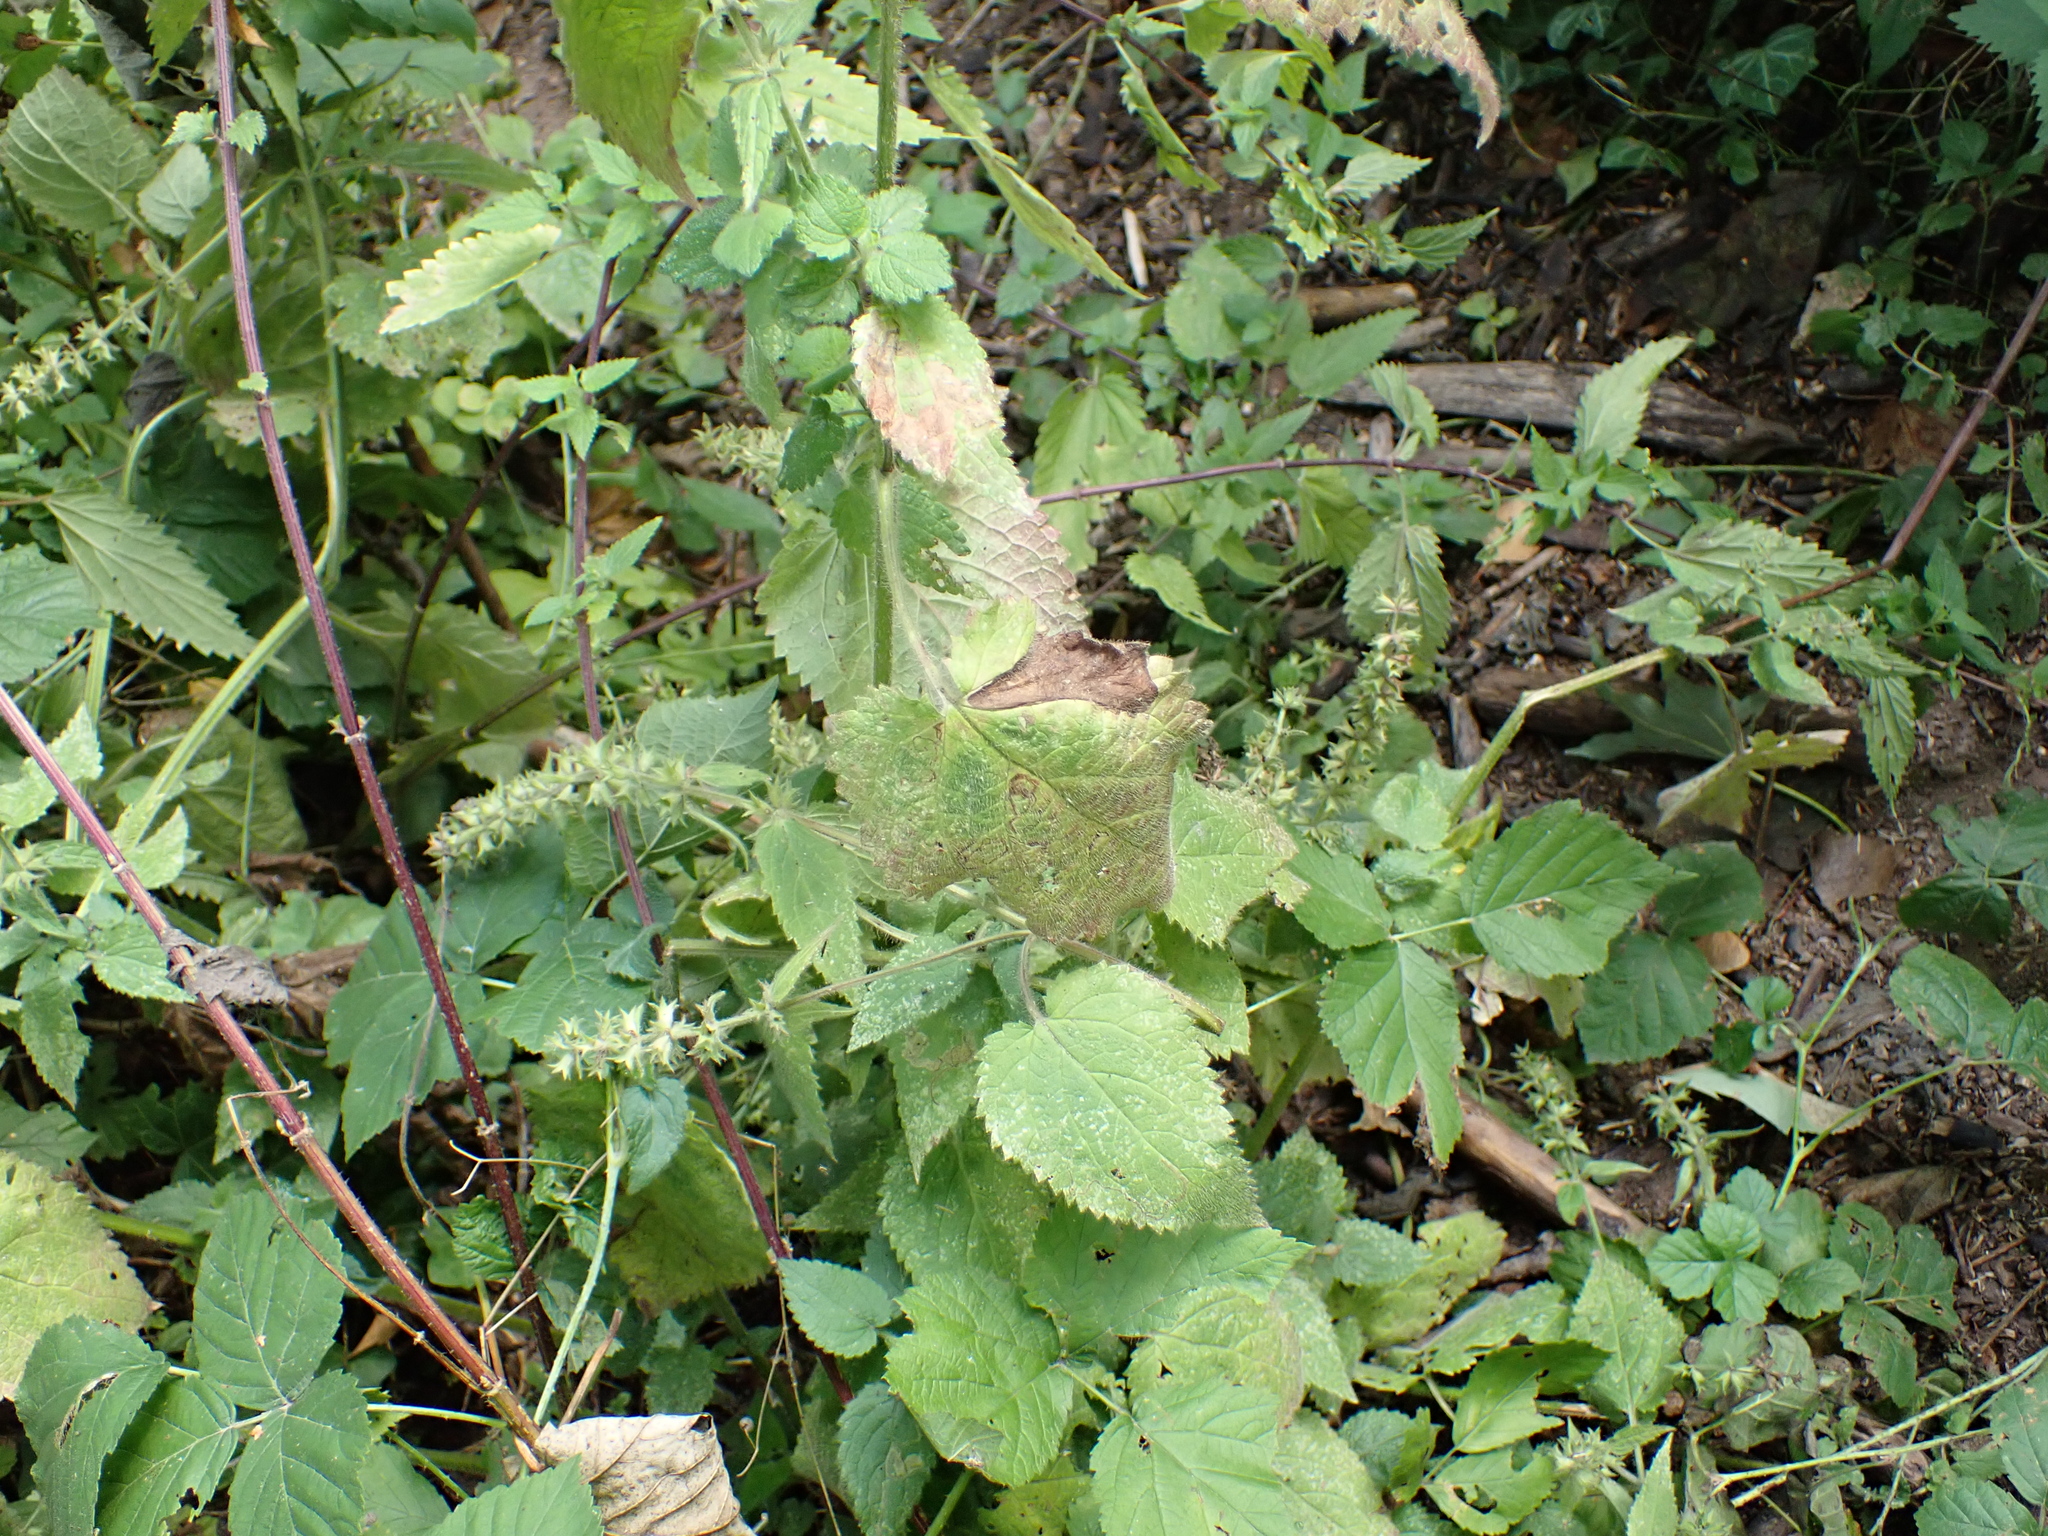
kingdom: Plantae
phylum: Tracheophyta
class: Magnoliopsida
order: Lamiales
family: Lamiaceae
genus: Stachys
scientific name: Stachys sylvatica
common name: Hedge woundwort
